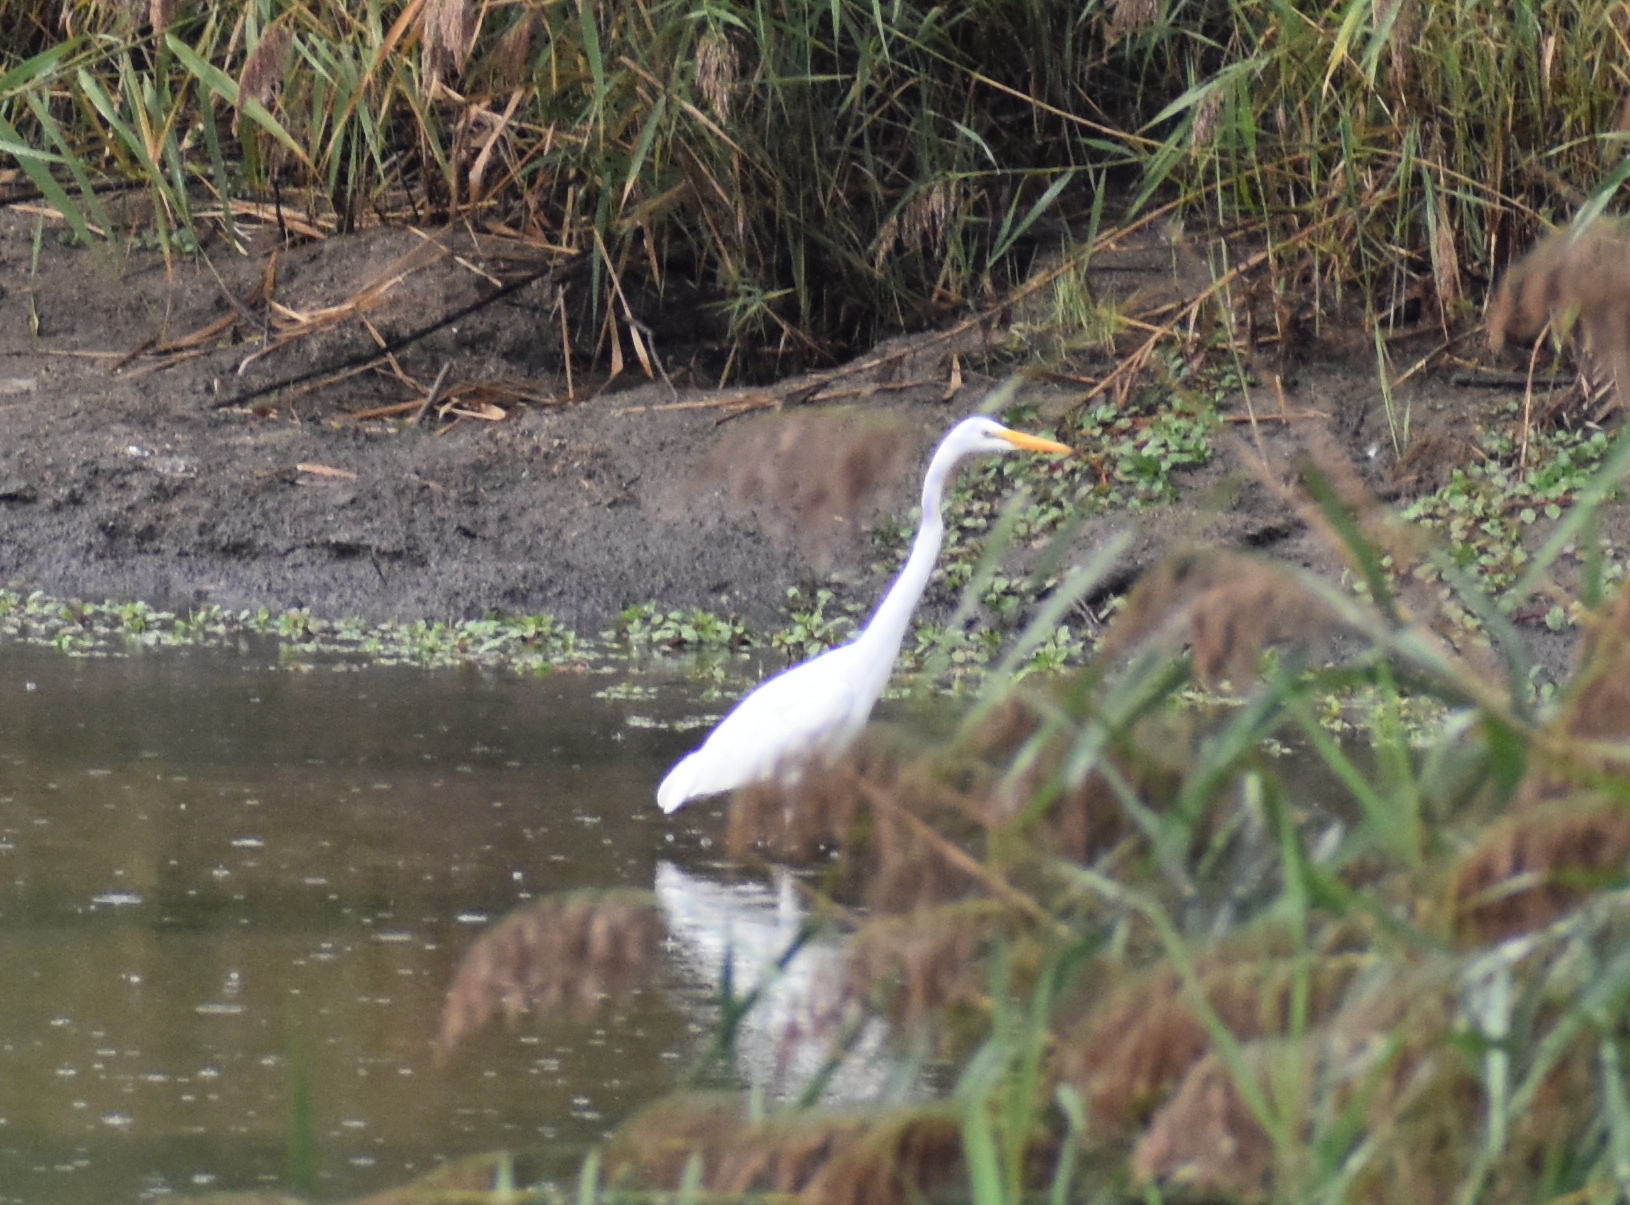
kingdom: Animalia
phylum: Chordata
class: Aves
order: Pelecaniformes
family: Ardeidae
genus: Ardea
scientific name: Ardea alba
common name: Great egret
